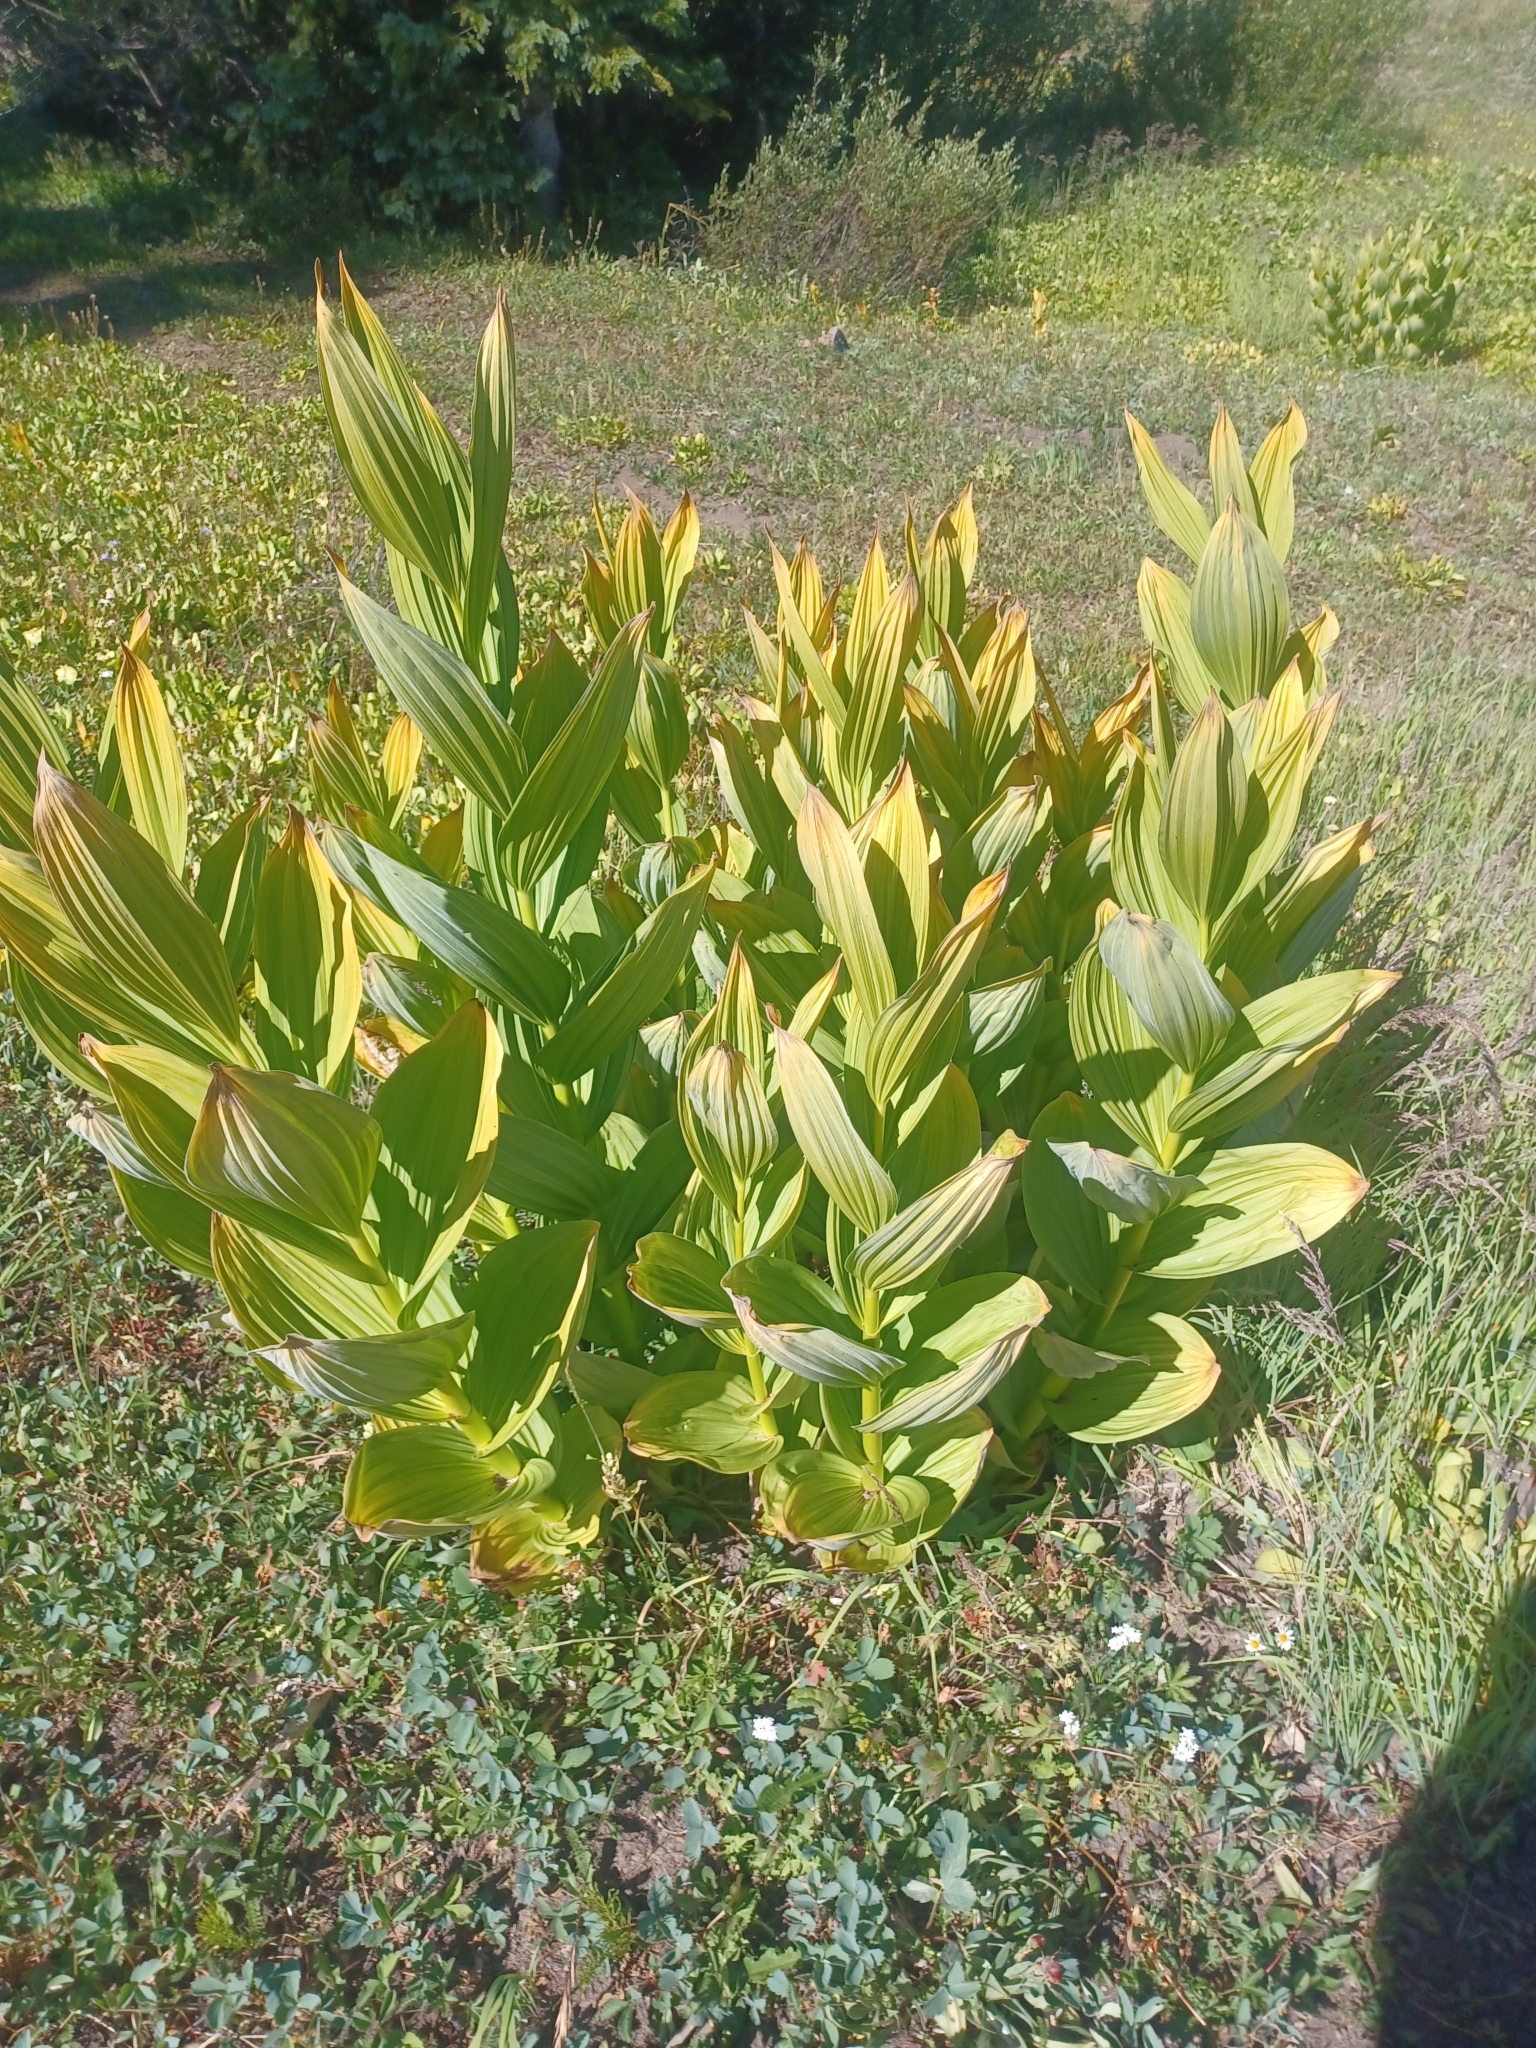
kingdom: Plantae
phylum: Tracheophyta
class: Liliopsida
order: Liliales
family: Melanthiaceae
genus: Veratrum
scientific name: Veratrum californicum
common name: California veratrum
